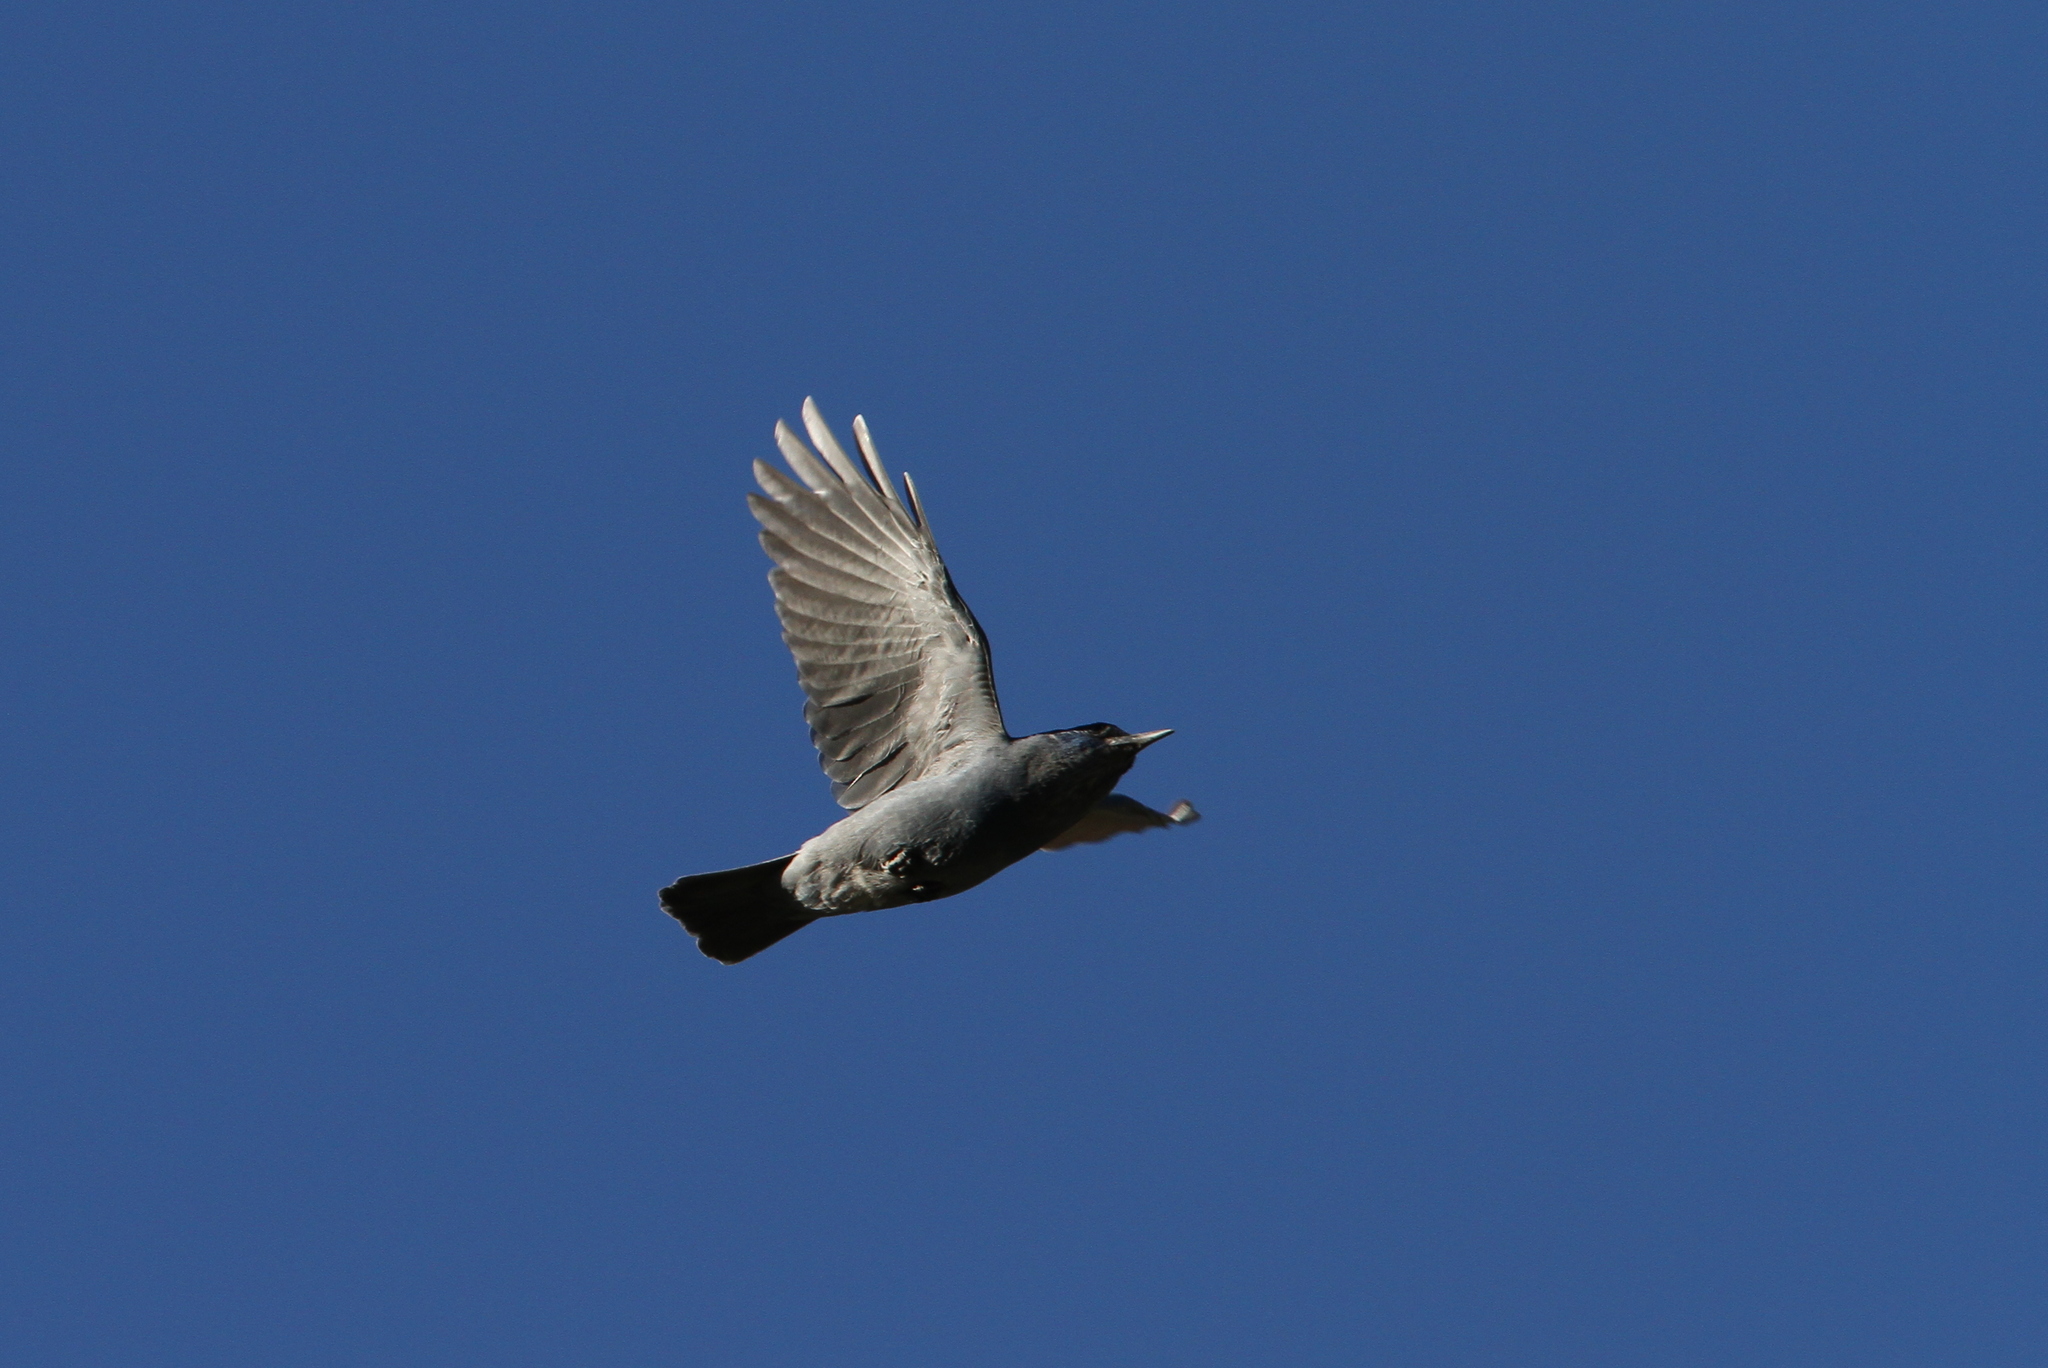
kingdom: Animalia
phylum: Chordata
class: Aves
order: Passeriformes
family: Corvidae
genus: Gymnorhinus
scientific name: Gymnorhinus cyanocephalus
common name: Pinyon jay
